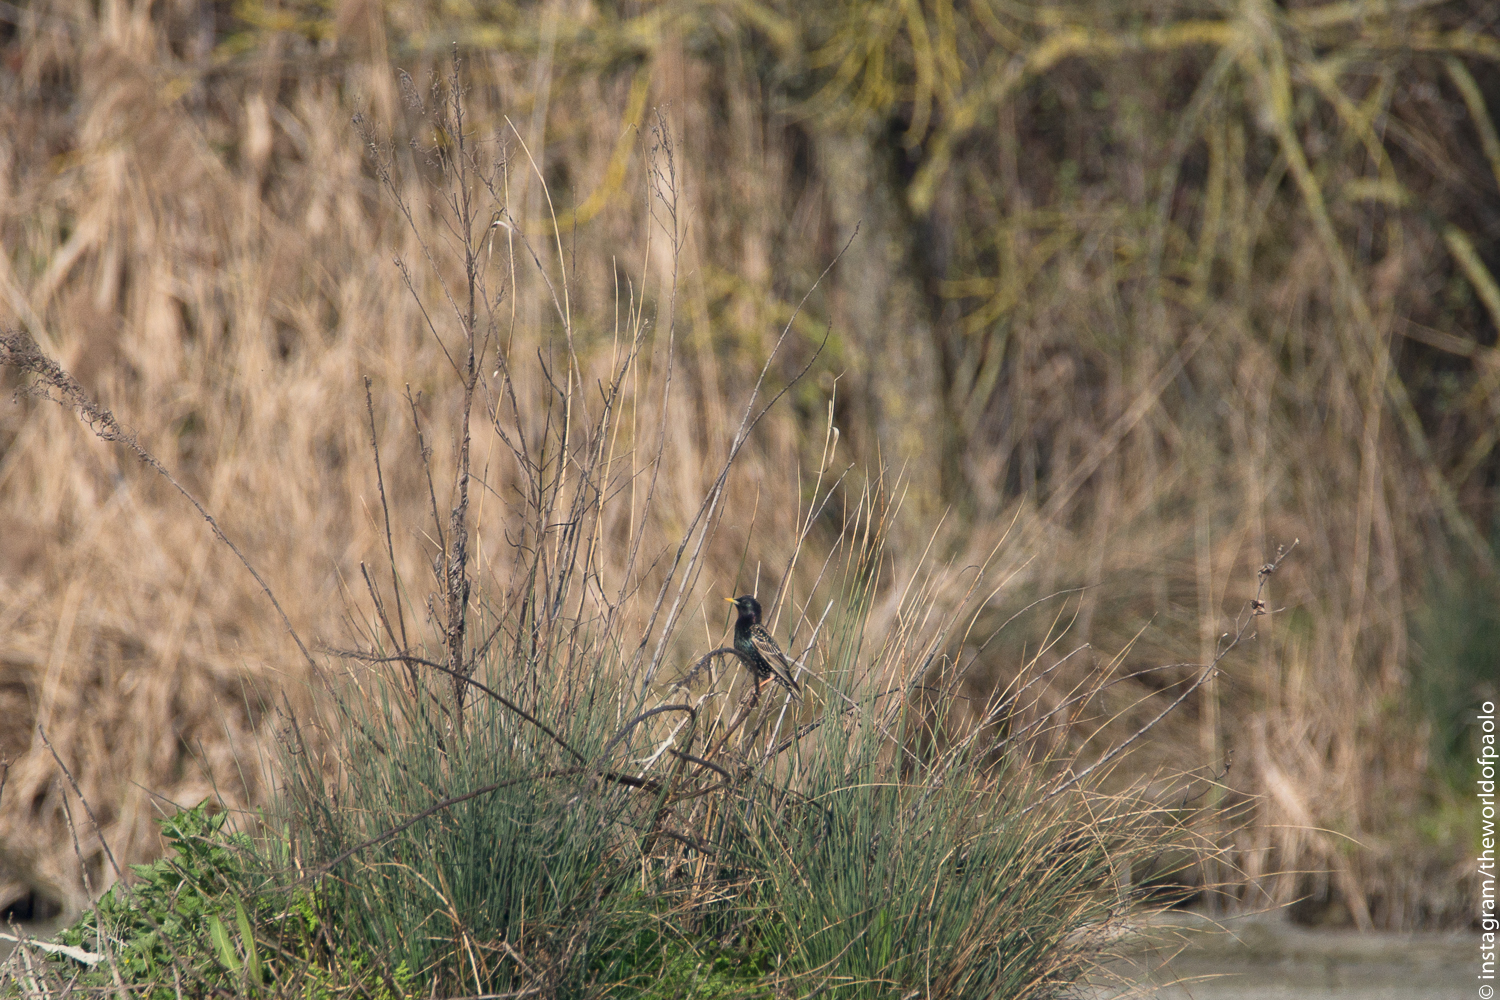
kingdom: Animalia
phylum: Chordata
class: Aves
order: Passeriformes
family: Sturnidae
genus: Sturnus
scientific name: Sturnus vulgaris
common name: Common starling
